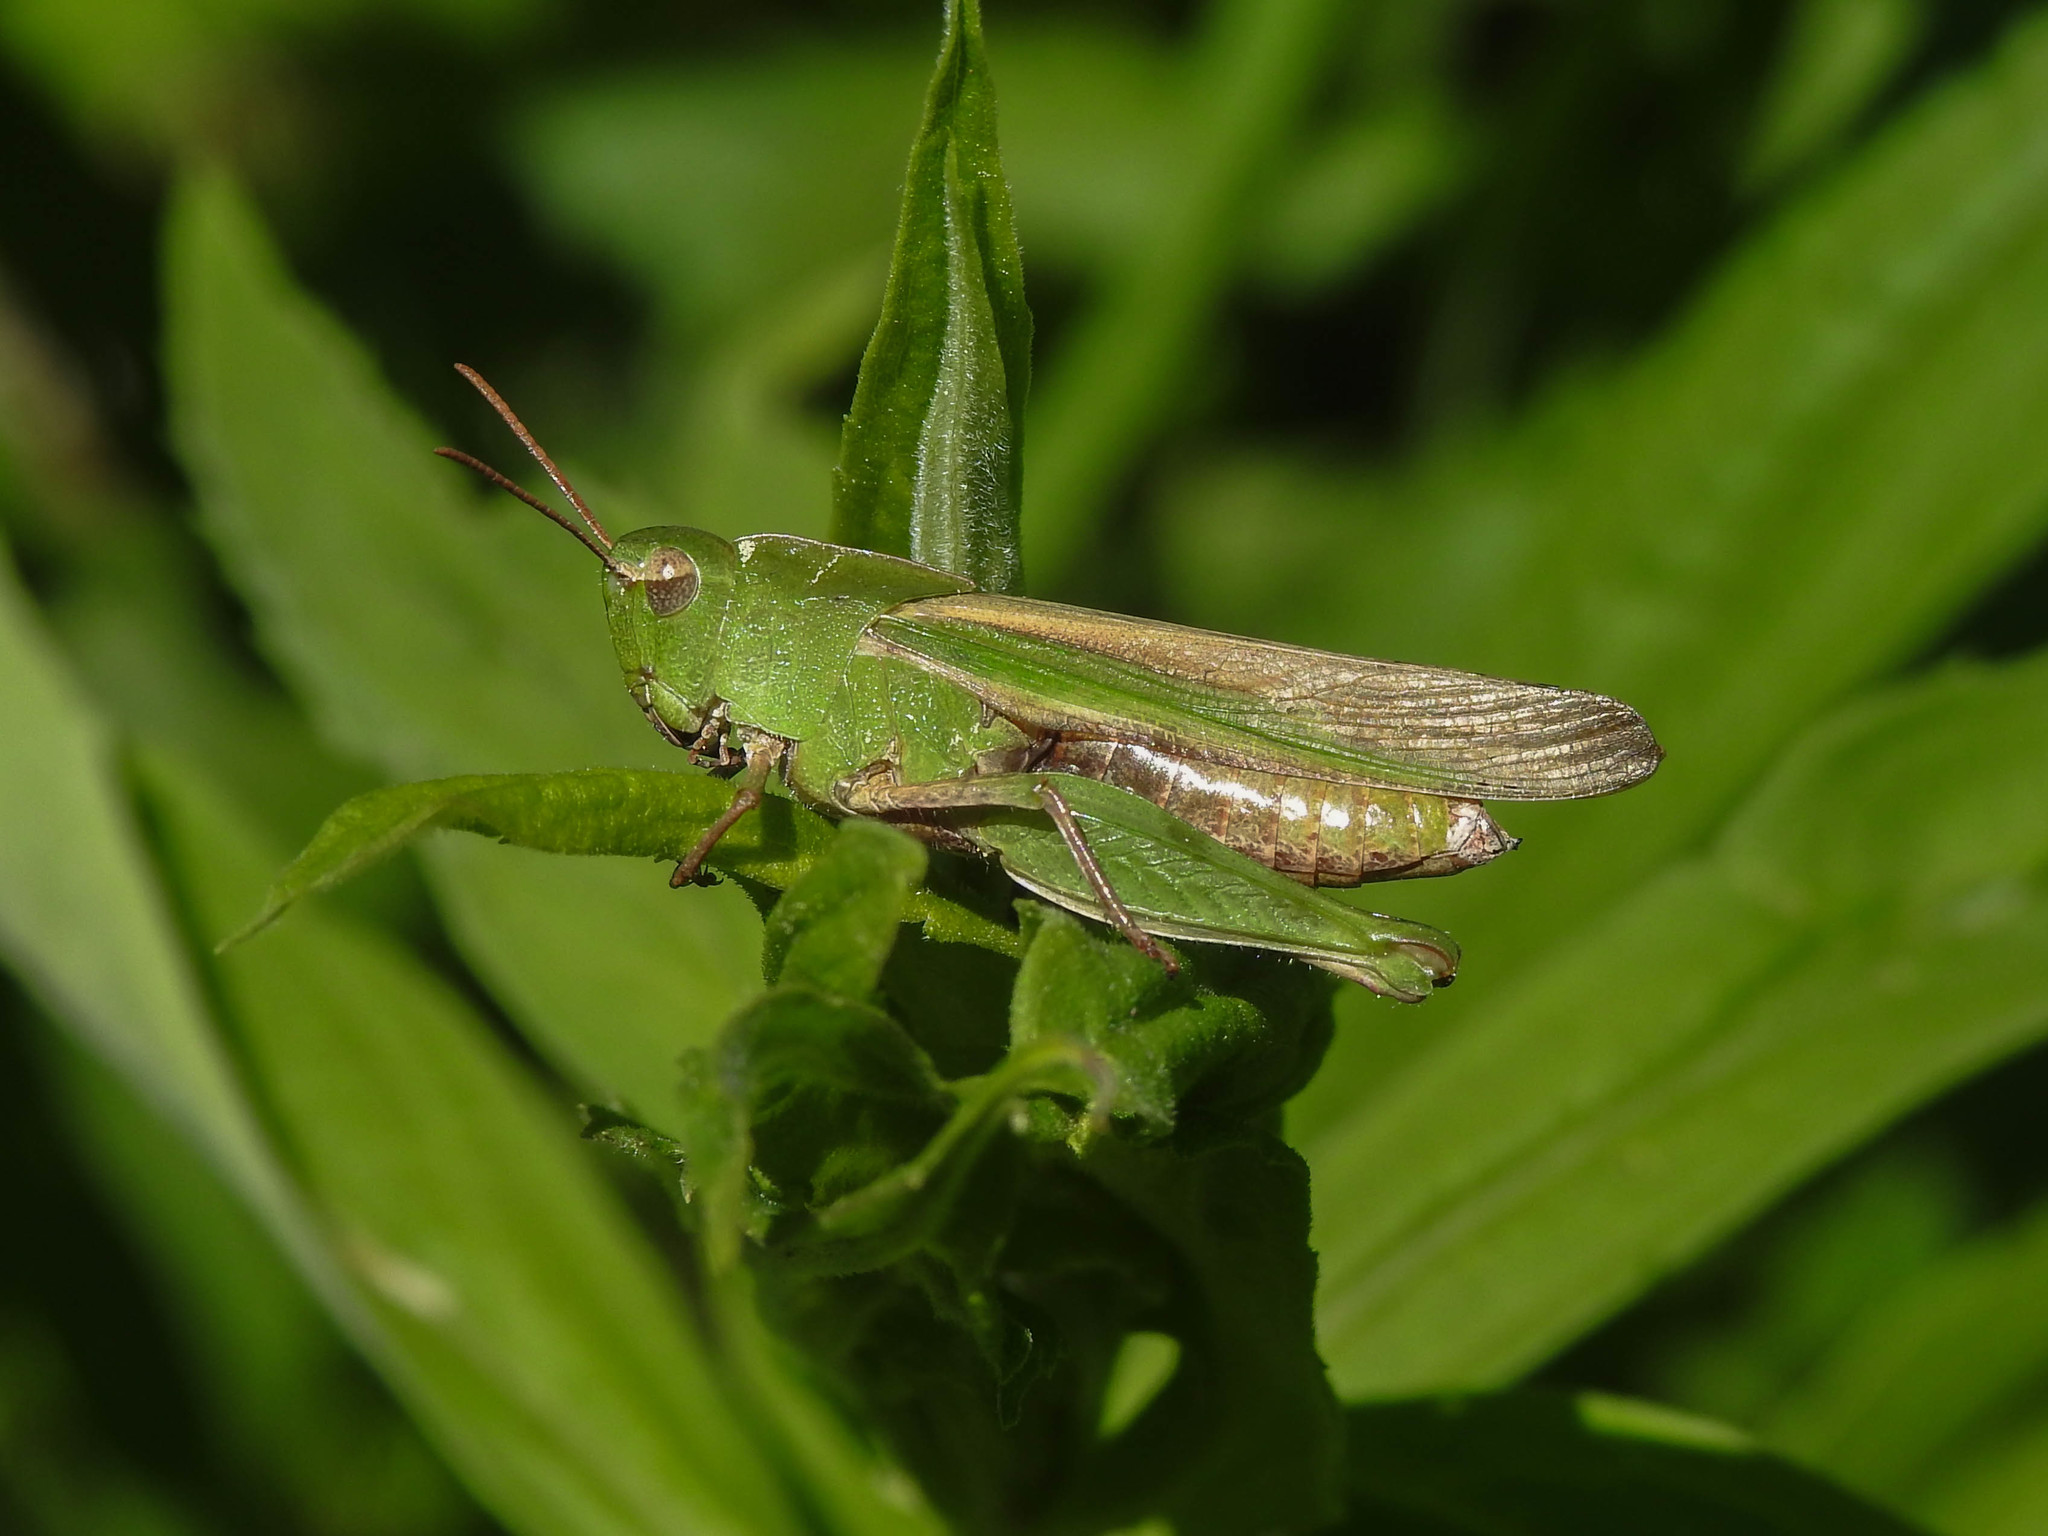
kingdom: Animalia
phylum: Arthropoda
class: Insecta
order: Orthoptera
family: Acrididae
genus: Chortophaga
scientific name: Chortophaga viridifasciata
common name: Green-striped grasshopper
